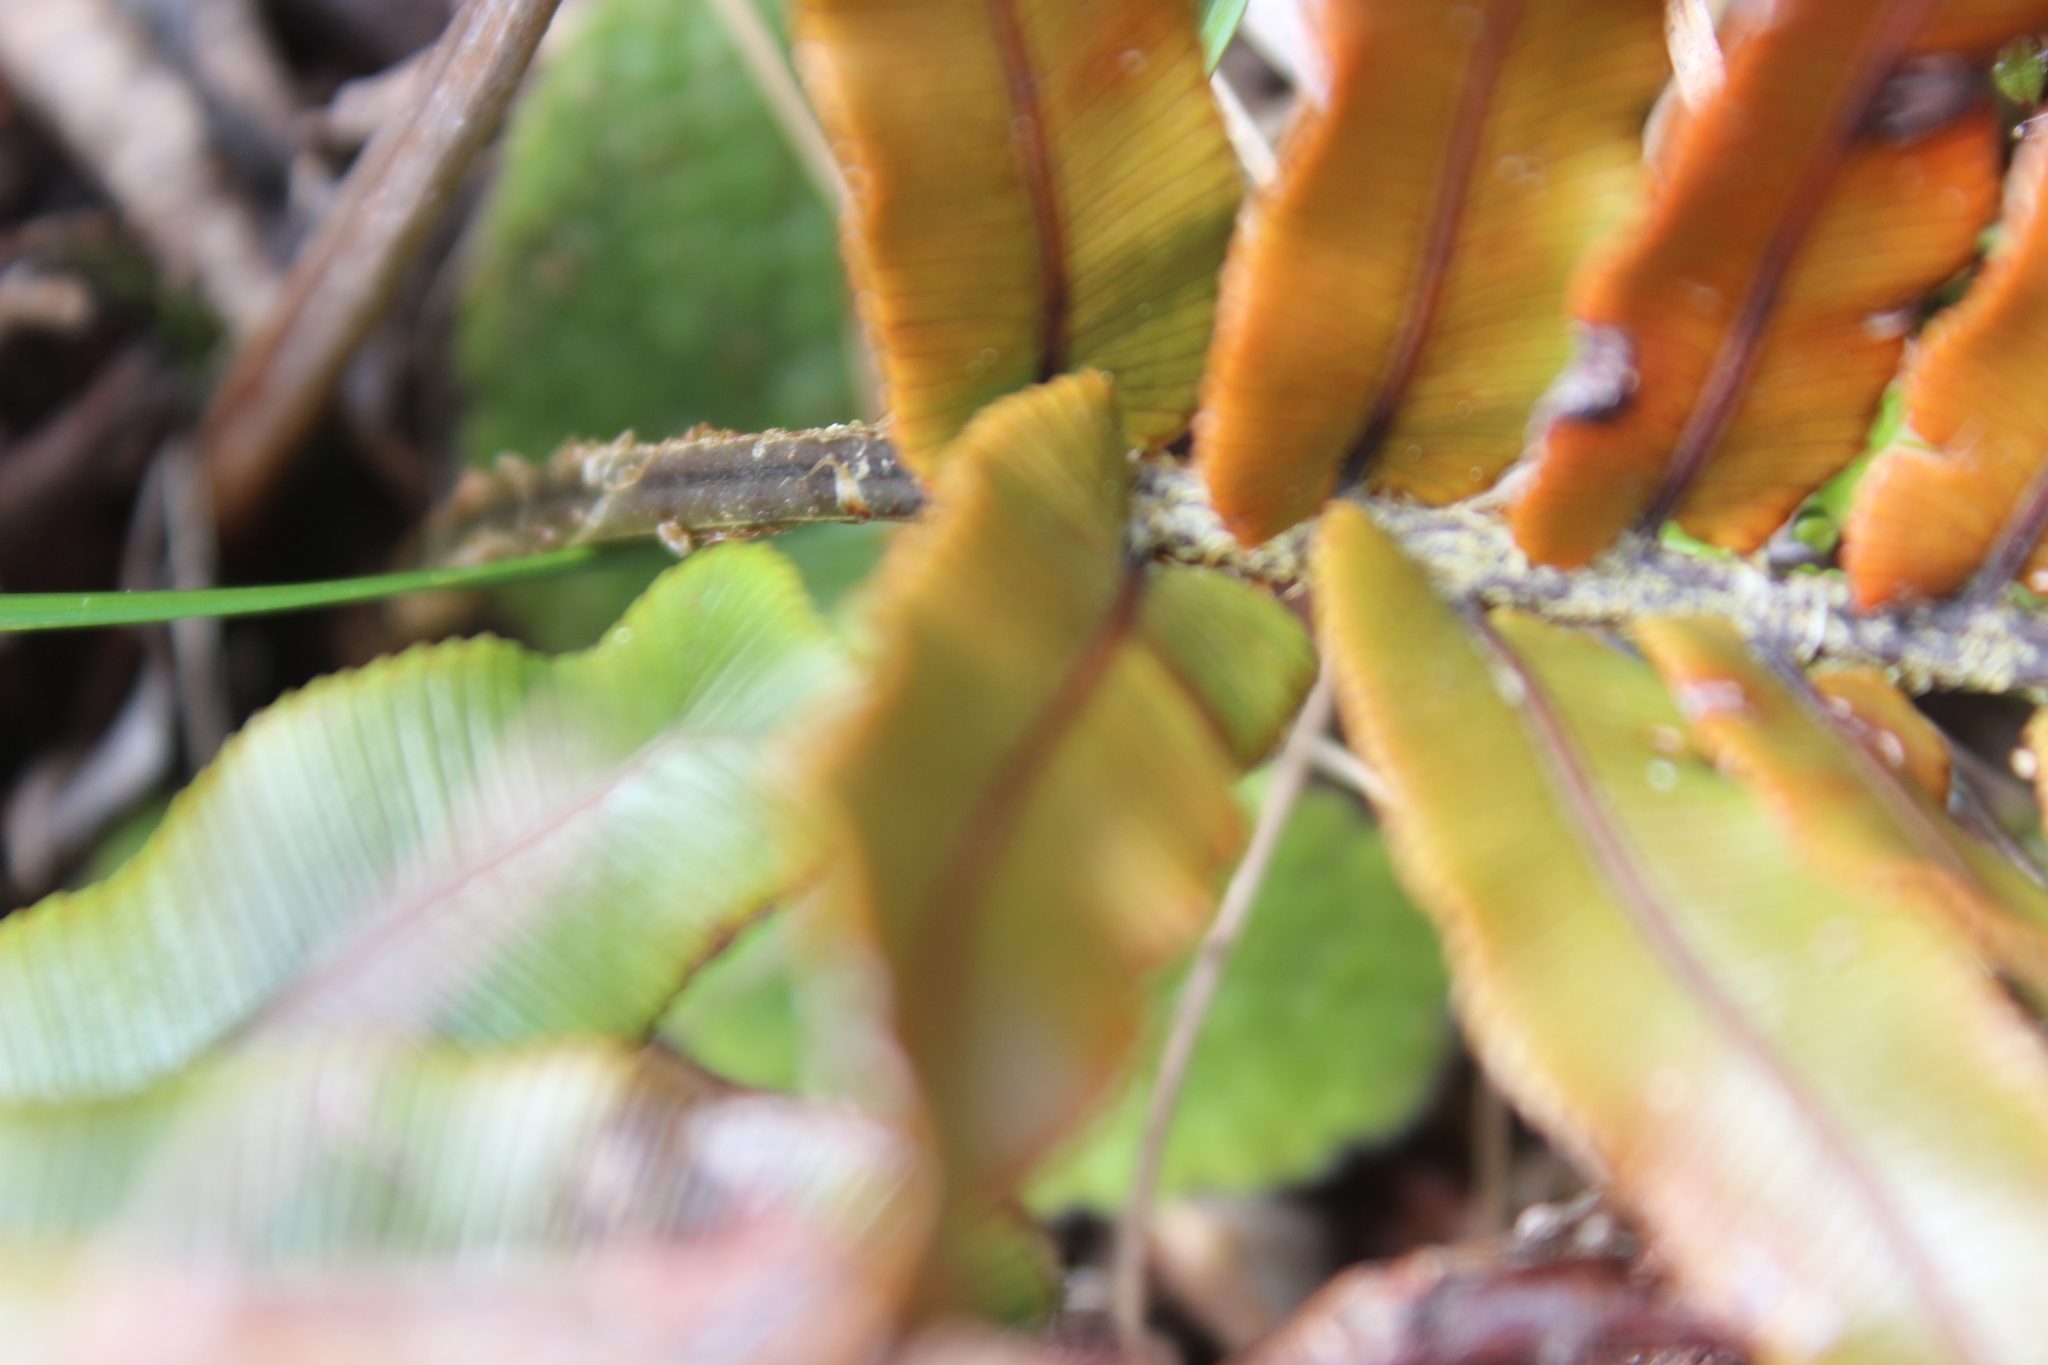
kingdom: Plantae
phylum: Tracheophyta
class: Polypodiopsida
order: Polypodiales
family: Blechnaceae
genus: Parablechnum
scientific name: Parablechnum montanum
